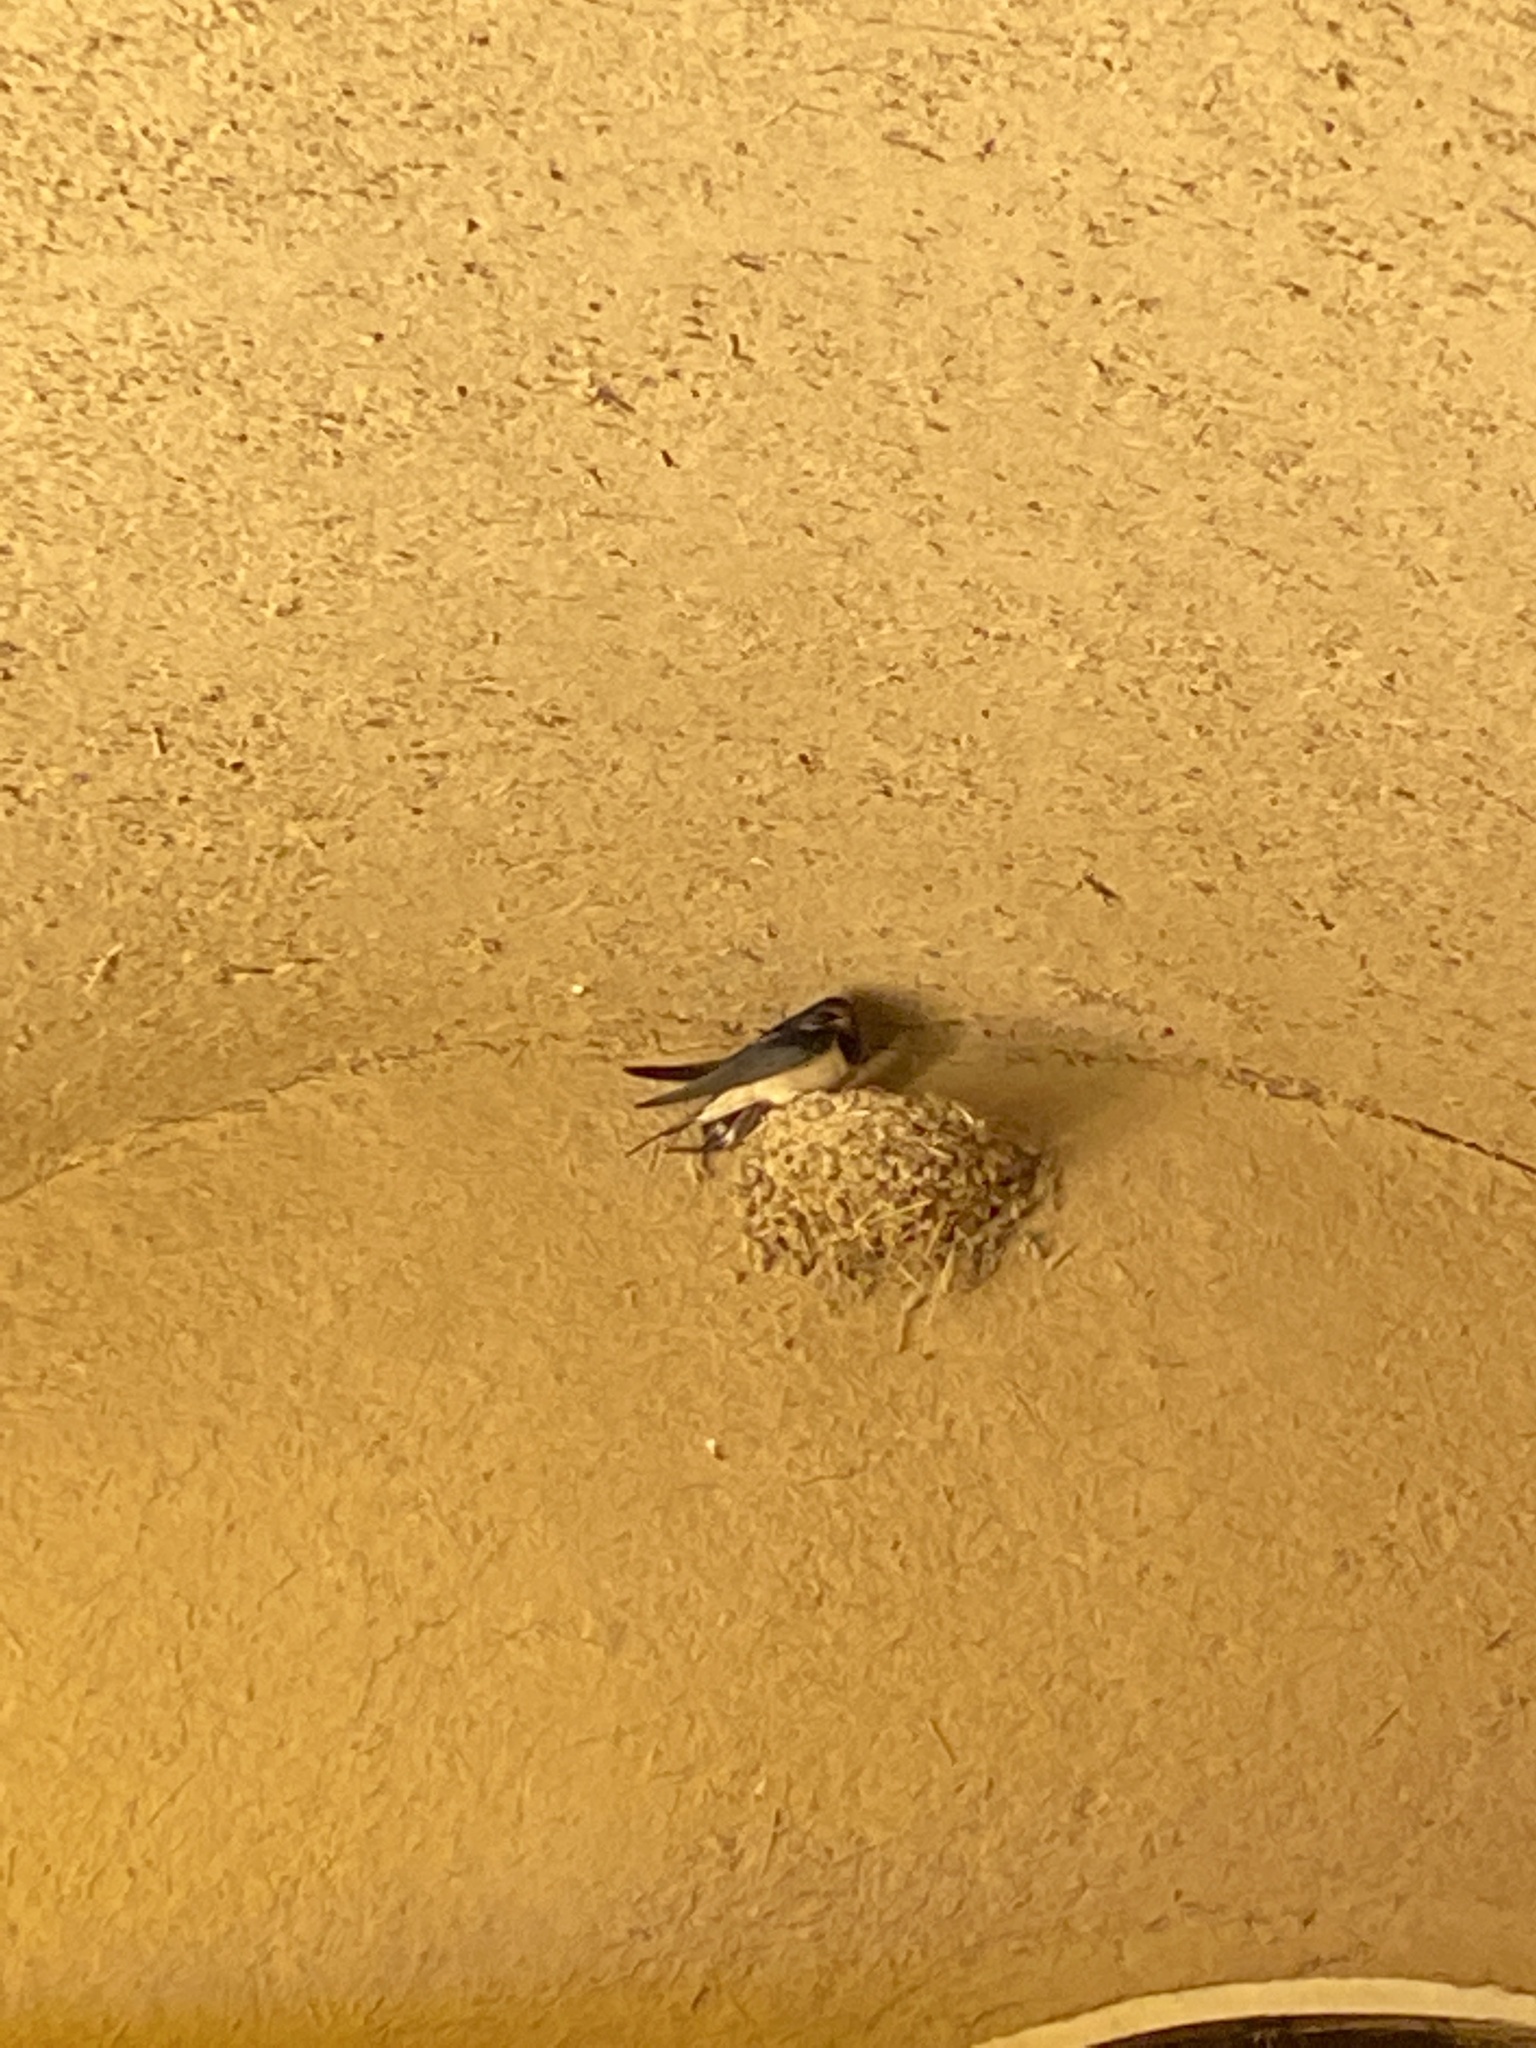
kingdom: Animalia
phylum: Chordata
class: Aves
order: Passeriformes
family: Hirundinidae
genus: Hirundo
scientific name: Hirundo rustica
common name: Barn swallow
